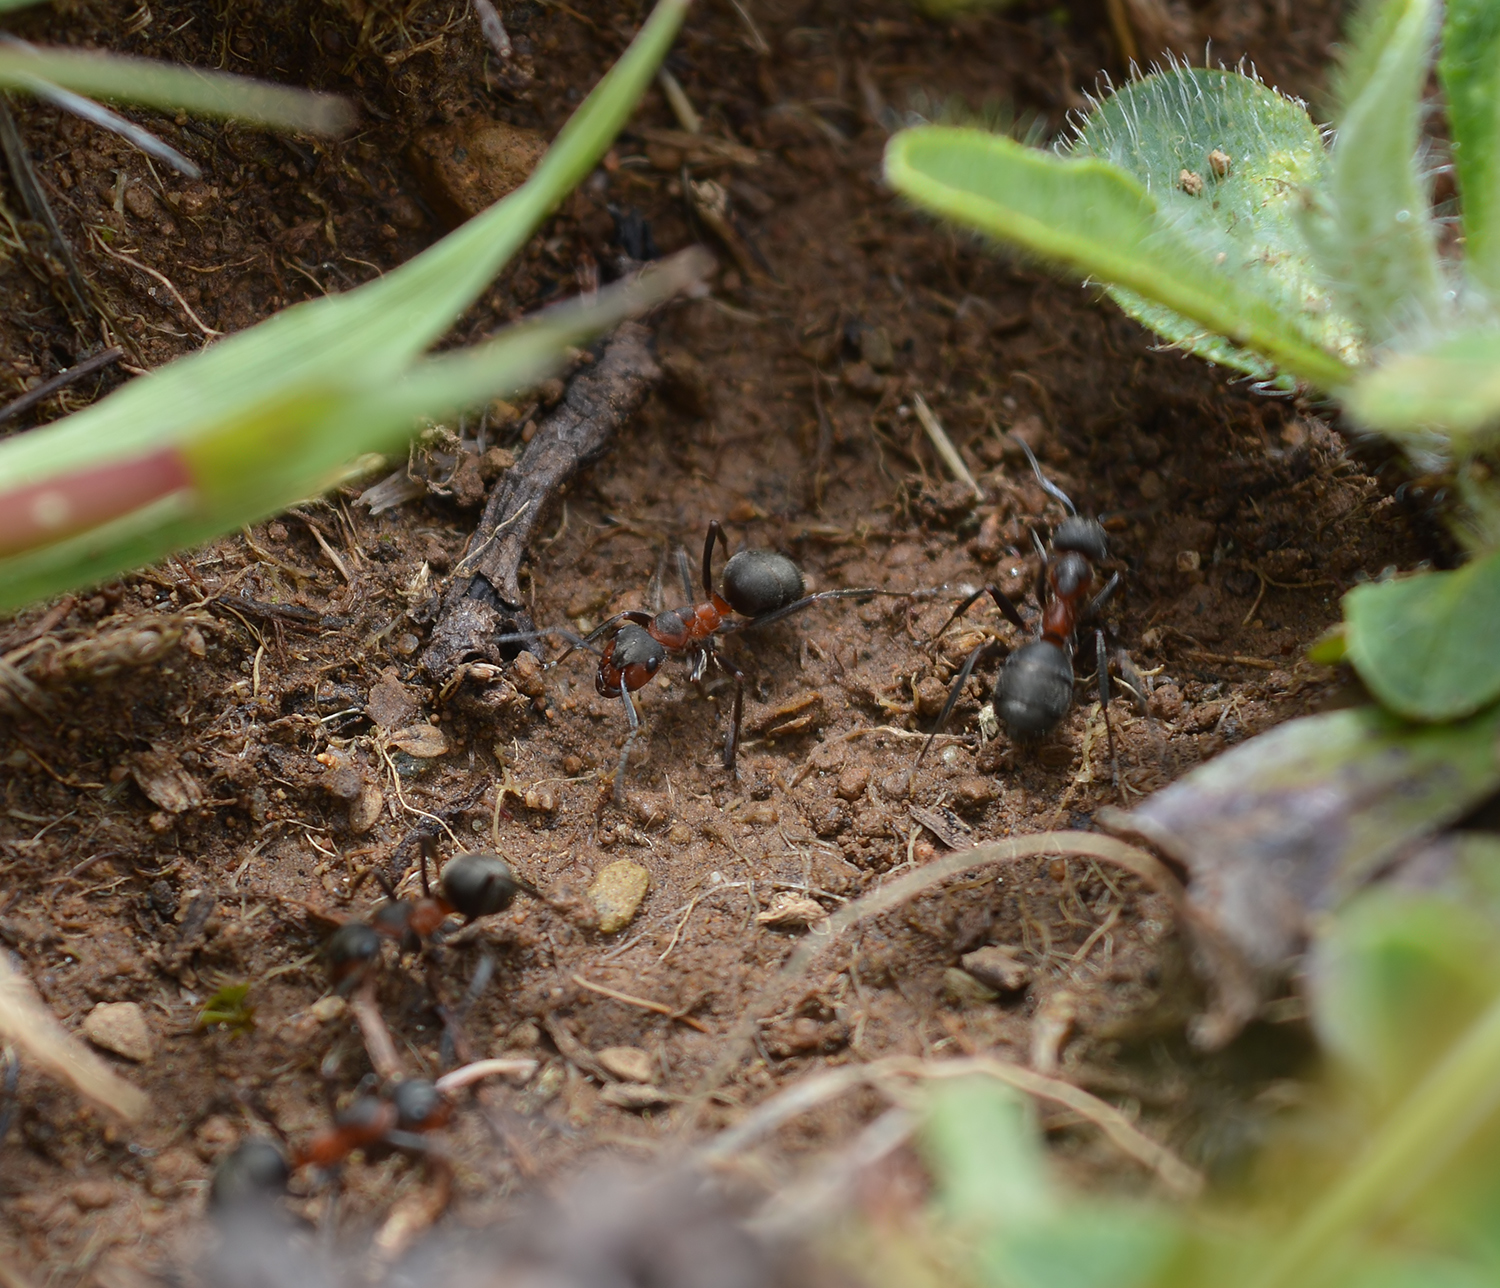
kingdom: Animalia
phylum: Arthropoda
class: Insecta
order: Hymenoptera
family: Formicidae
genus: Formica
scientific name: Formica
